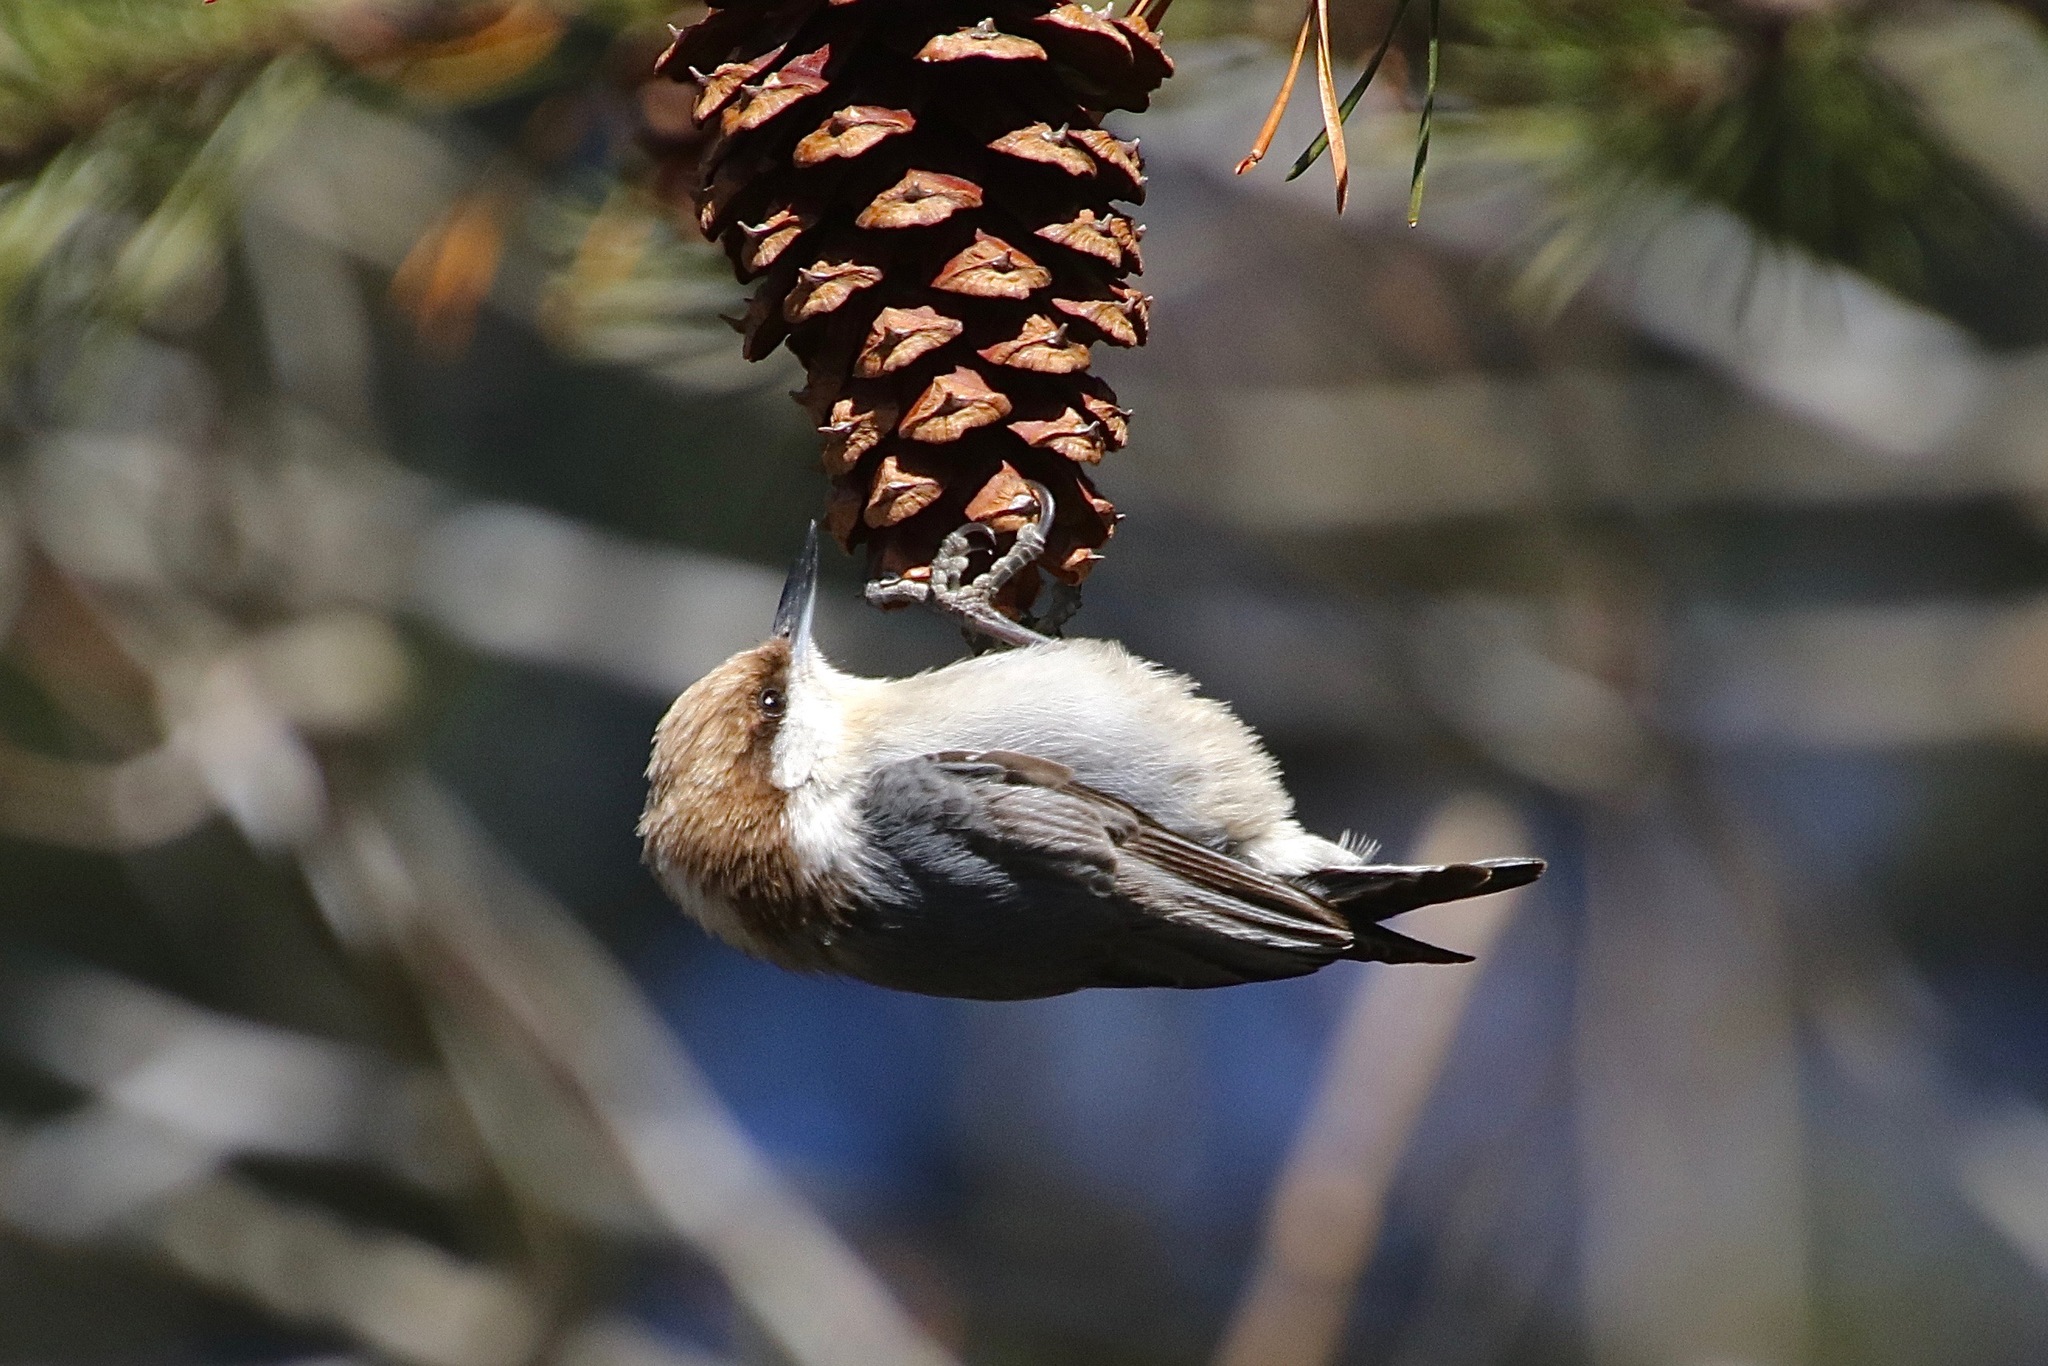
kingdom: Animalia
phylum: Chordata
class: Aves
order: Passeriformes
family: Sittidae
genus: Sitta
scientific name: Sitta pusilla
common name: Brown-headed nuthatch
